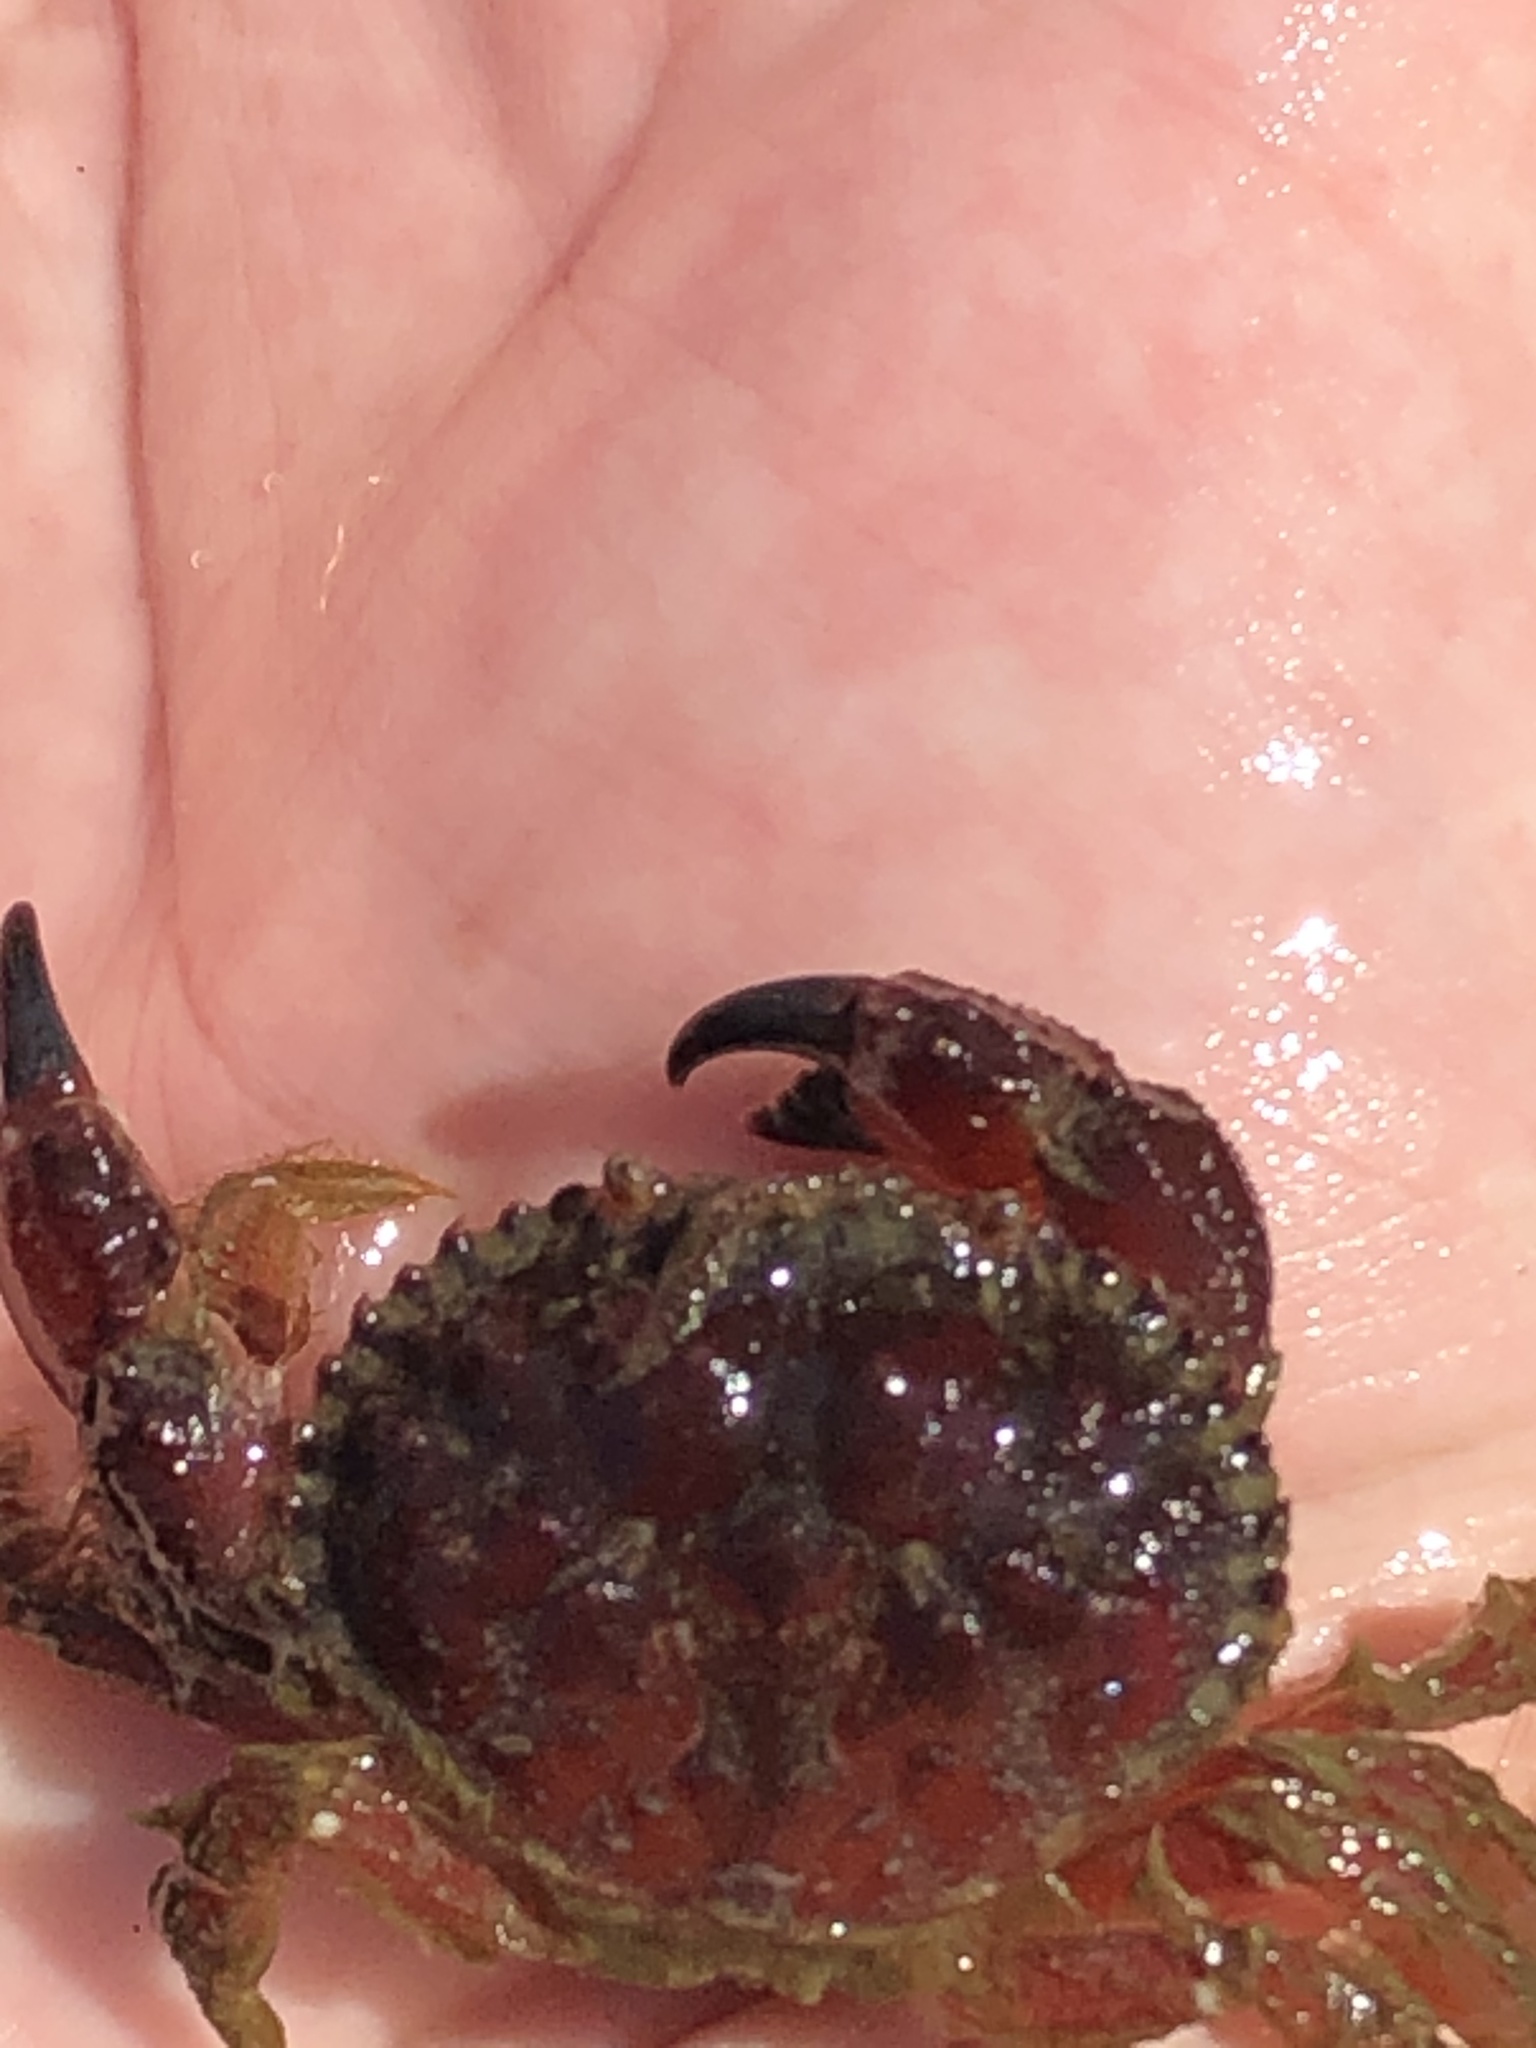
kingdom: Animalia
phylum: Arthropoda
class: Malacostraca
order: Decapoda
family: Cancridae
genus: Glebocarcinus
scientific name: Glebocarcinus oregonensis
